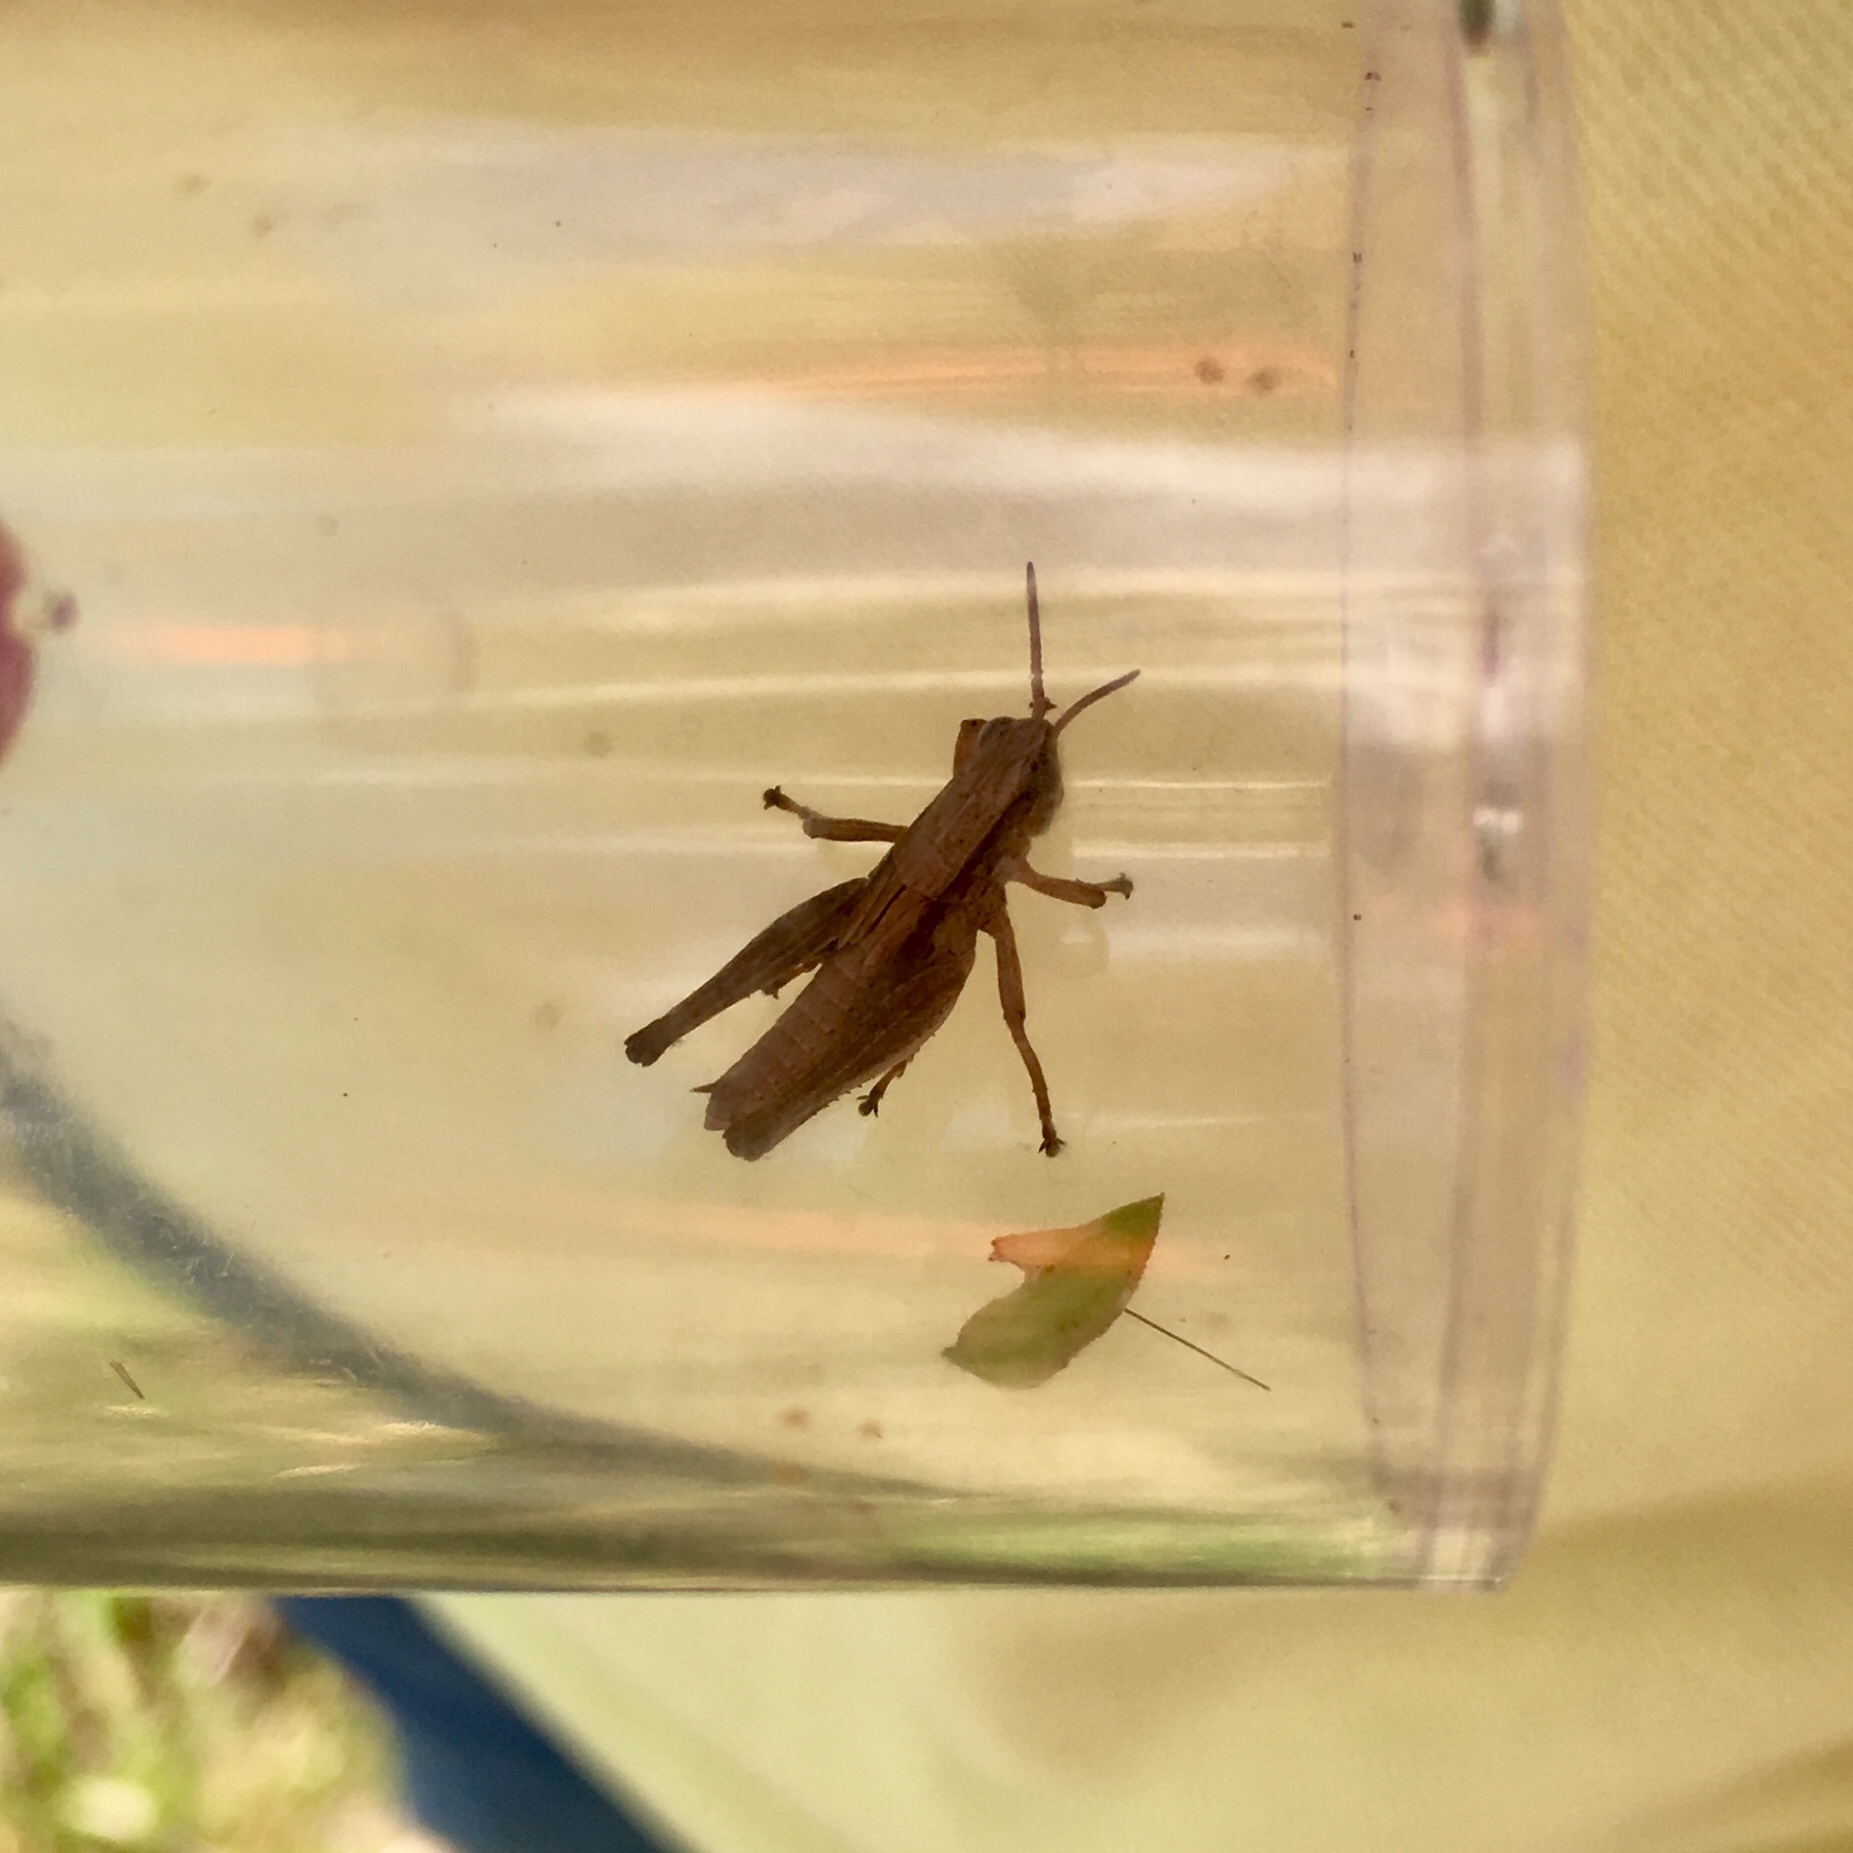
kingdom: Animalia
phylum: Arthropoda
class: Insecta
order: Orthoptera
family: Acrididae
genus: Dichromorpha
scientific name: Dichromorpha viridis
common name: Short-winged green grasshopper
